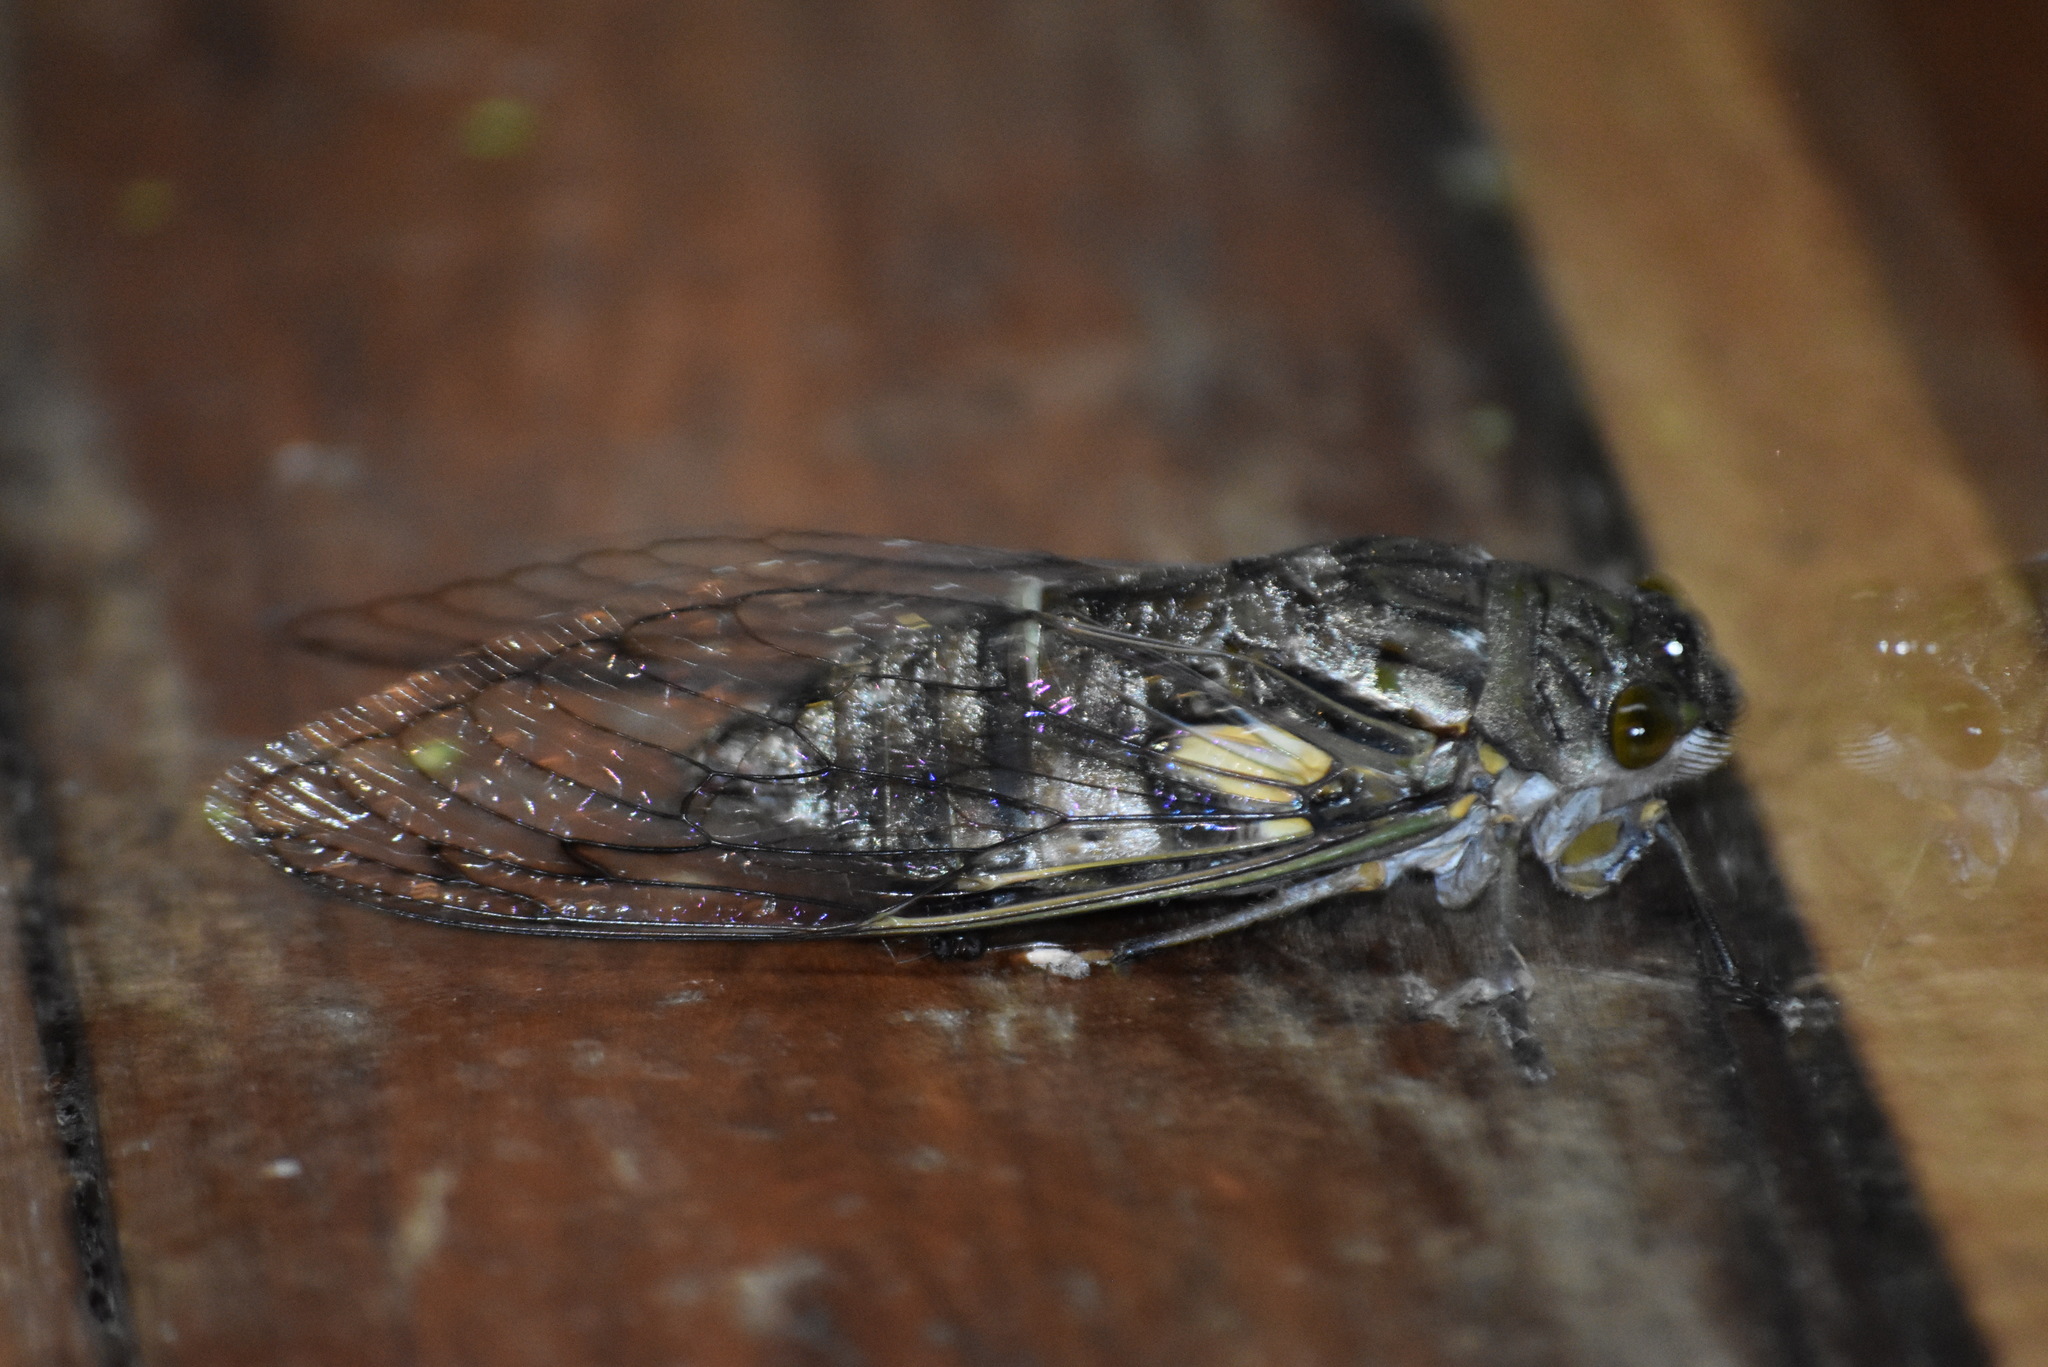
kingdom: Animalia
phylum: Arthropoda
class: Insecta
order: Hemiptera
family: Cicadidae
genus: Quesada
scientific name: Quesada gigas
